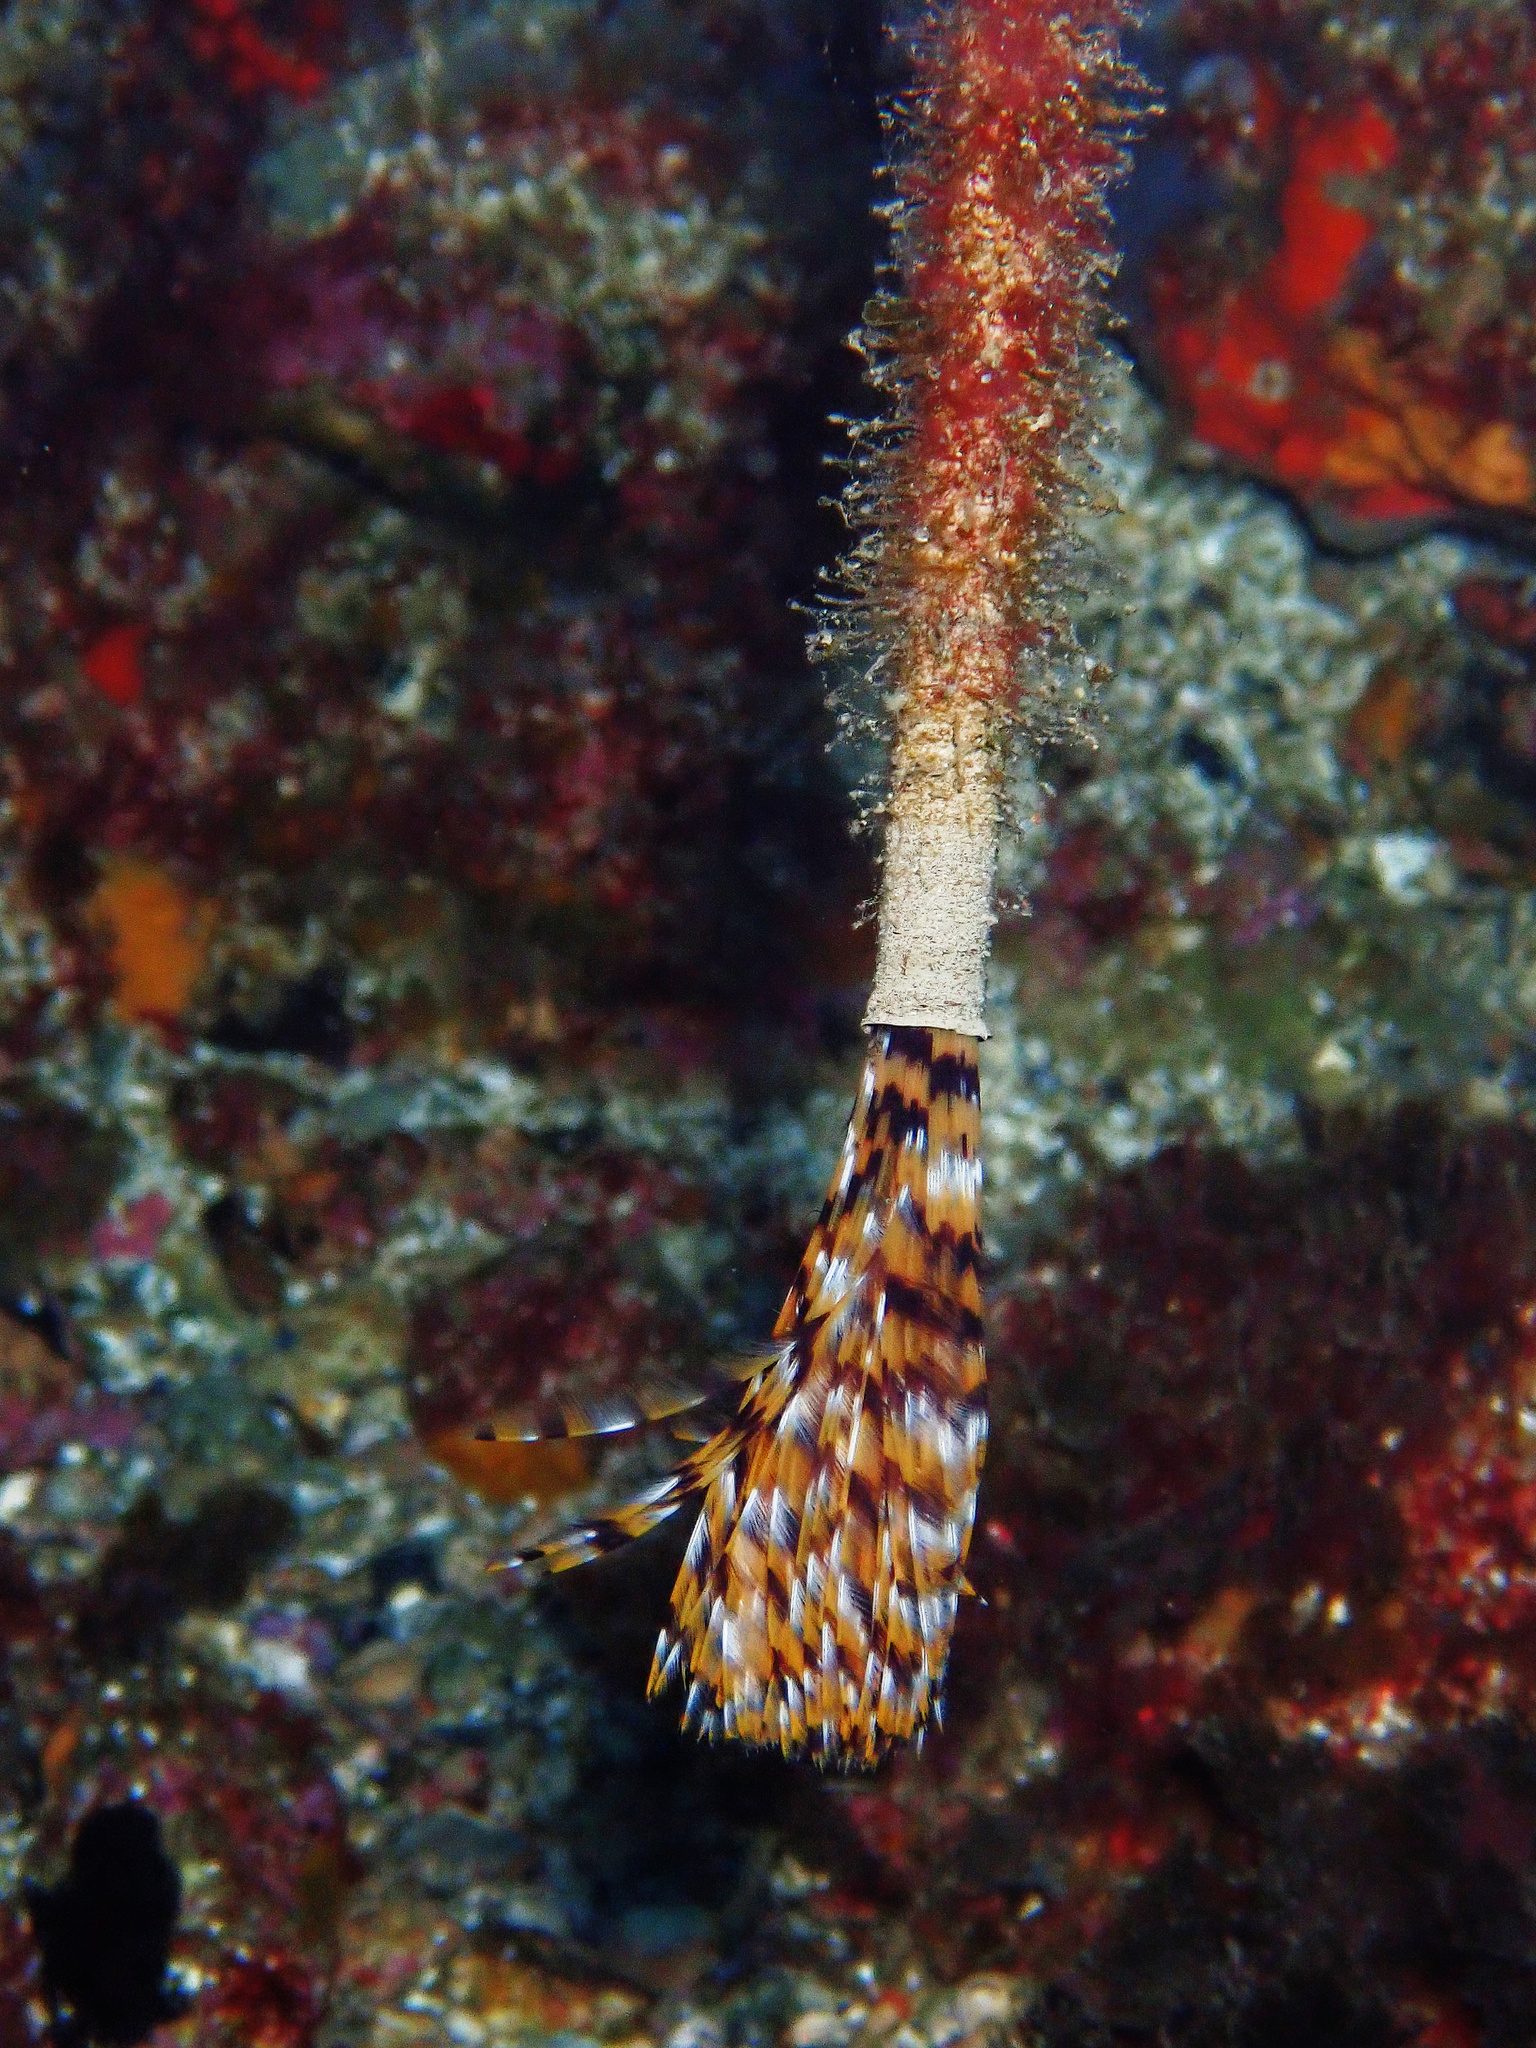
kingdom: Animalia
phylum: Annelida
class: Polychaeta
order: Sabellida
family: Sabellidae
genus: Sabella
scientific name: Sabella spallanzanii
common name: Feather duster worm
